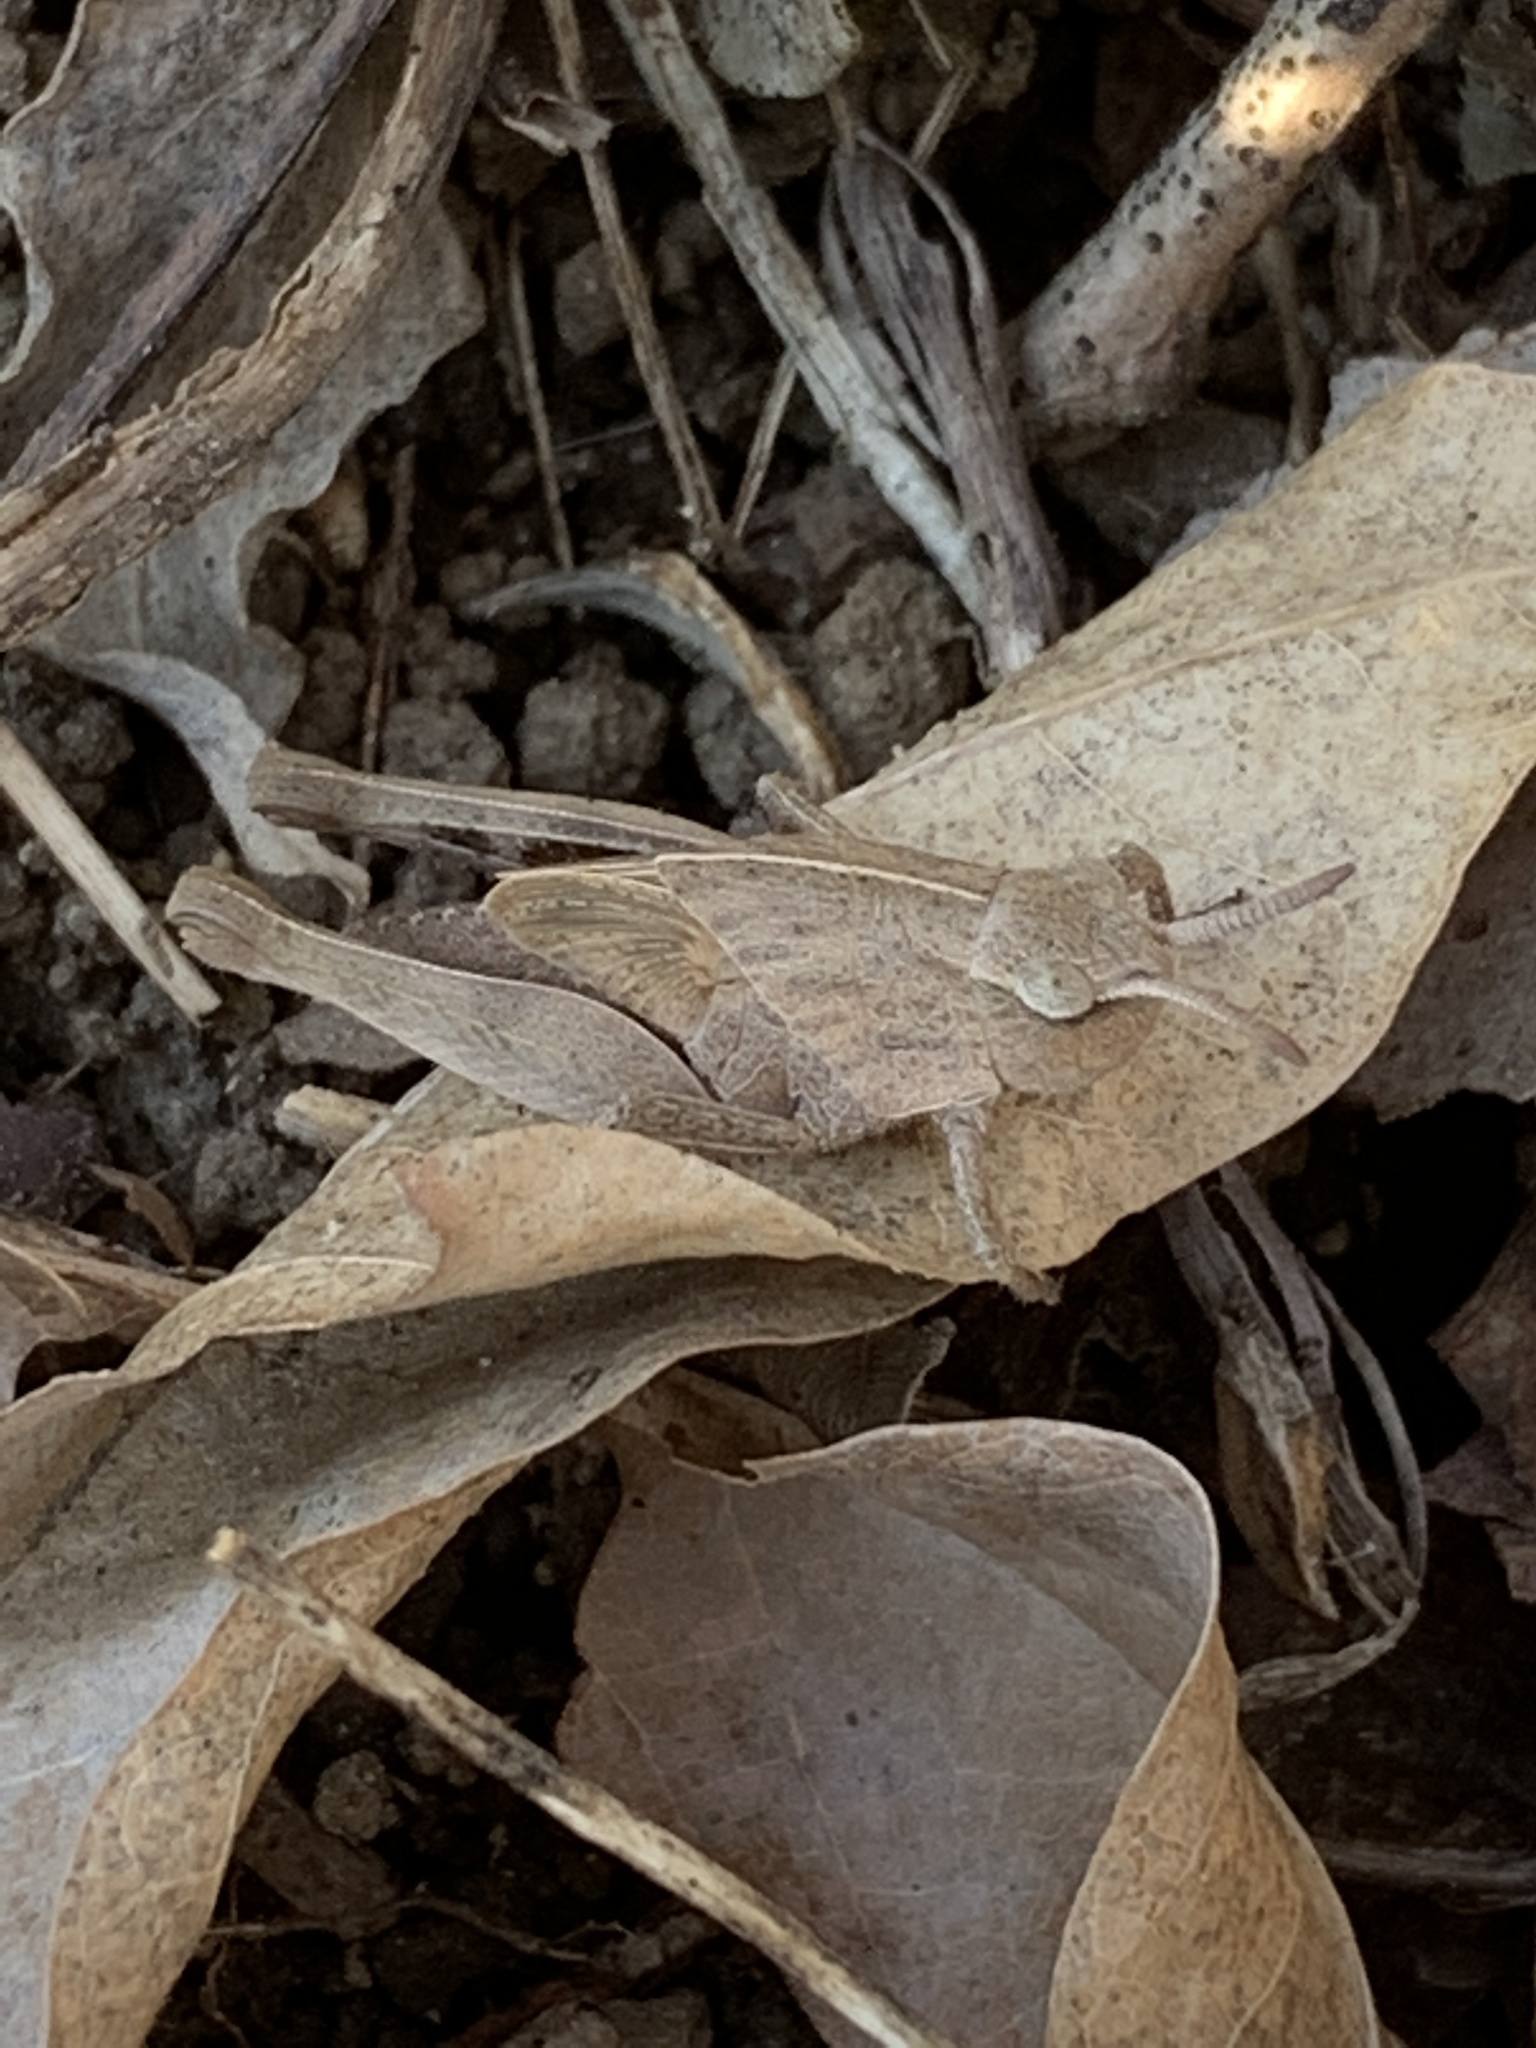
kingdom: Animalia
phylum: Arthropoda
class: Insecta
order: Orthoptera
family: Acrididae
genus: Chortophaga
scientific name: Chortophaga viridifasciata
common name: Green-striped grasshopper
